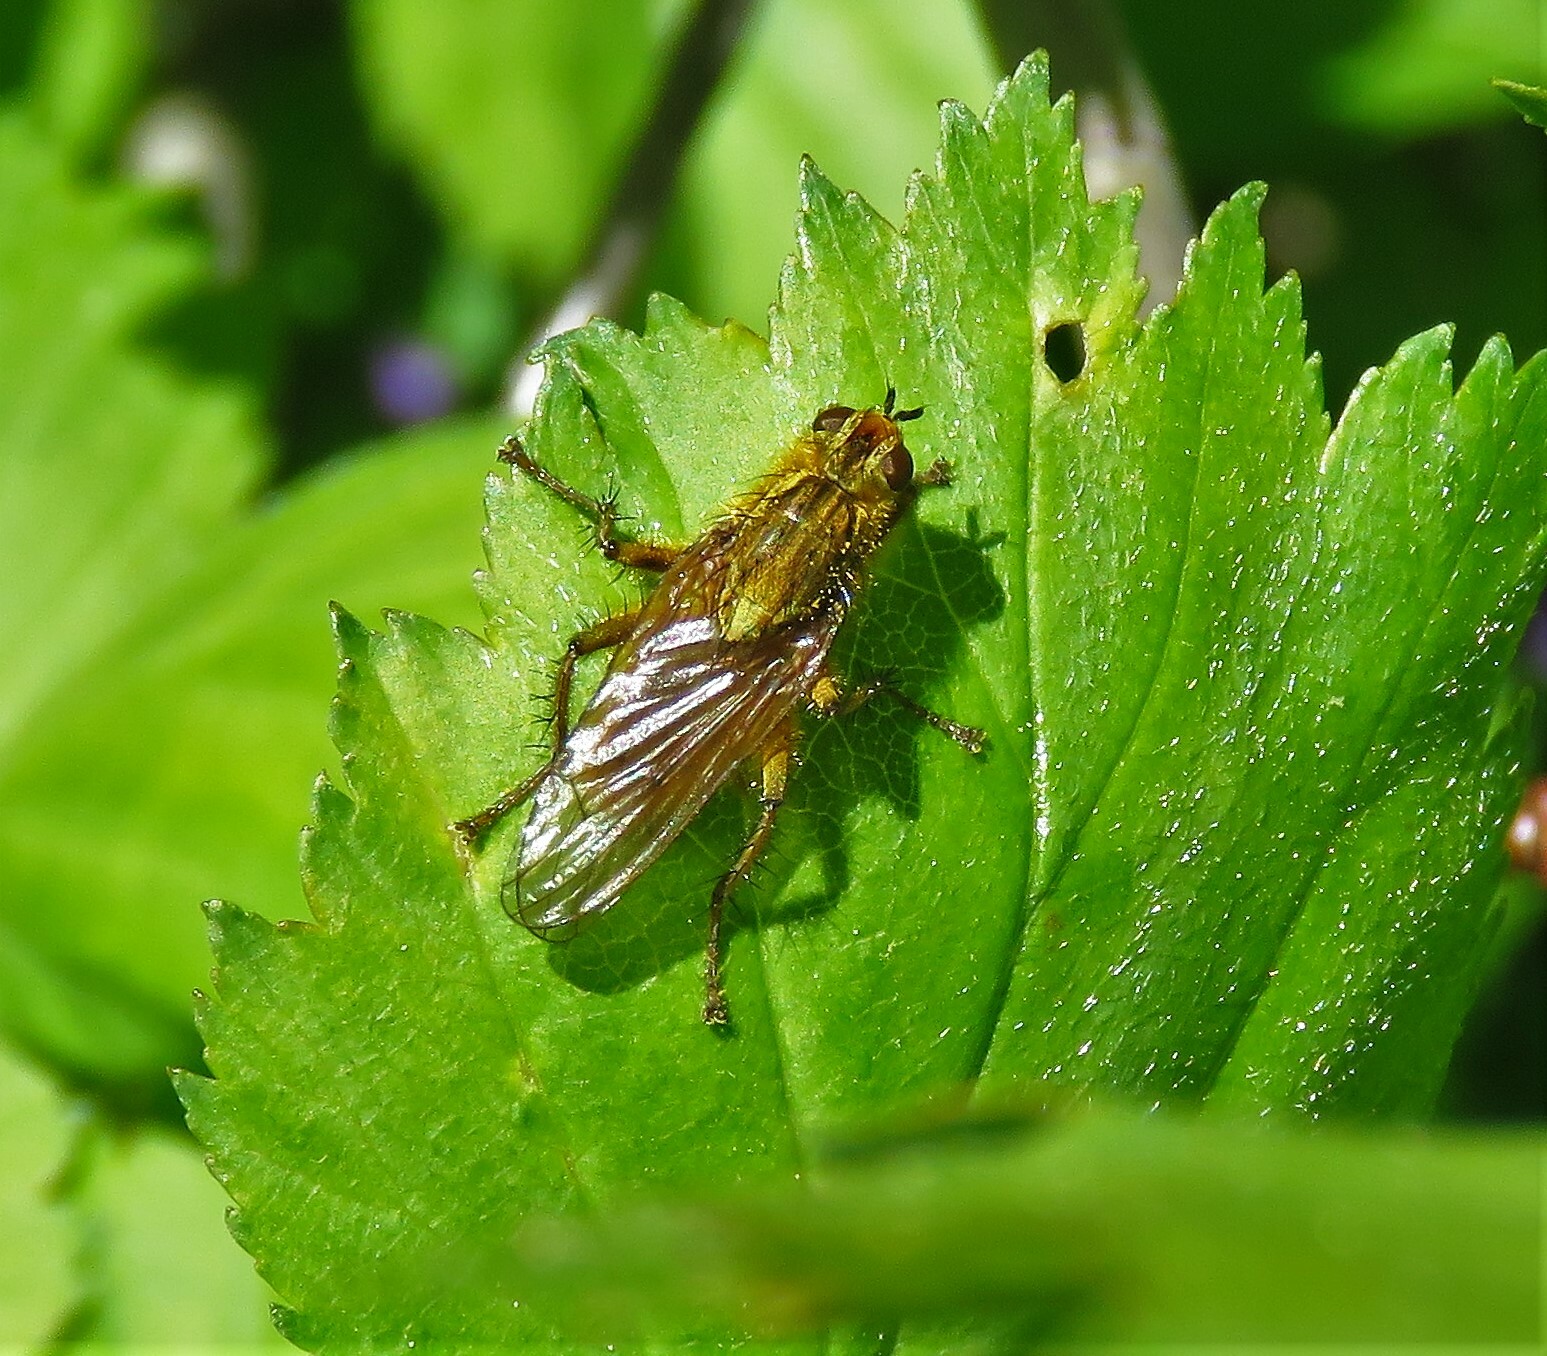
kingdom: Animalia
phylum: Arthropoda
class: Insecta
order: Diptera
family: Scathophagidae
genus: Scathophaga
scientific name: Scathophaga stercoraria
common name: Yellow dung fly
